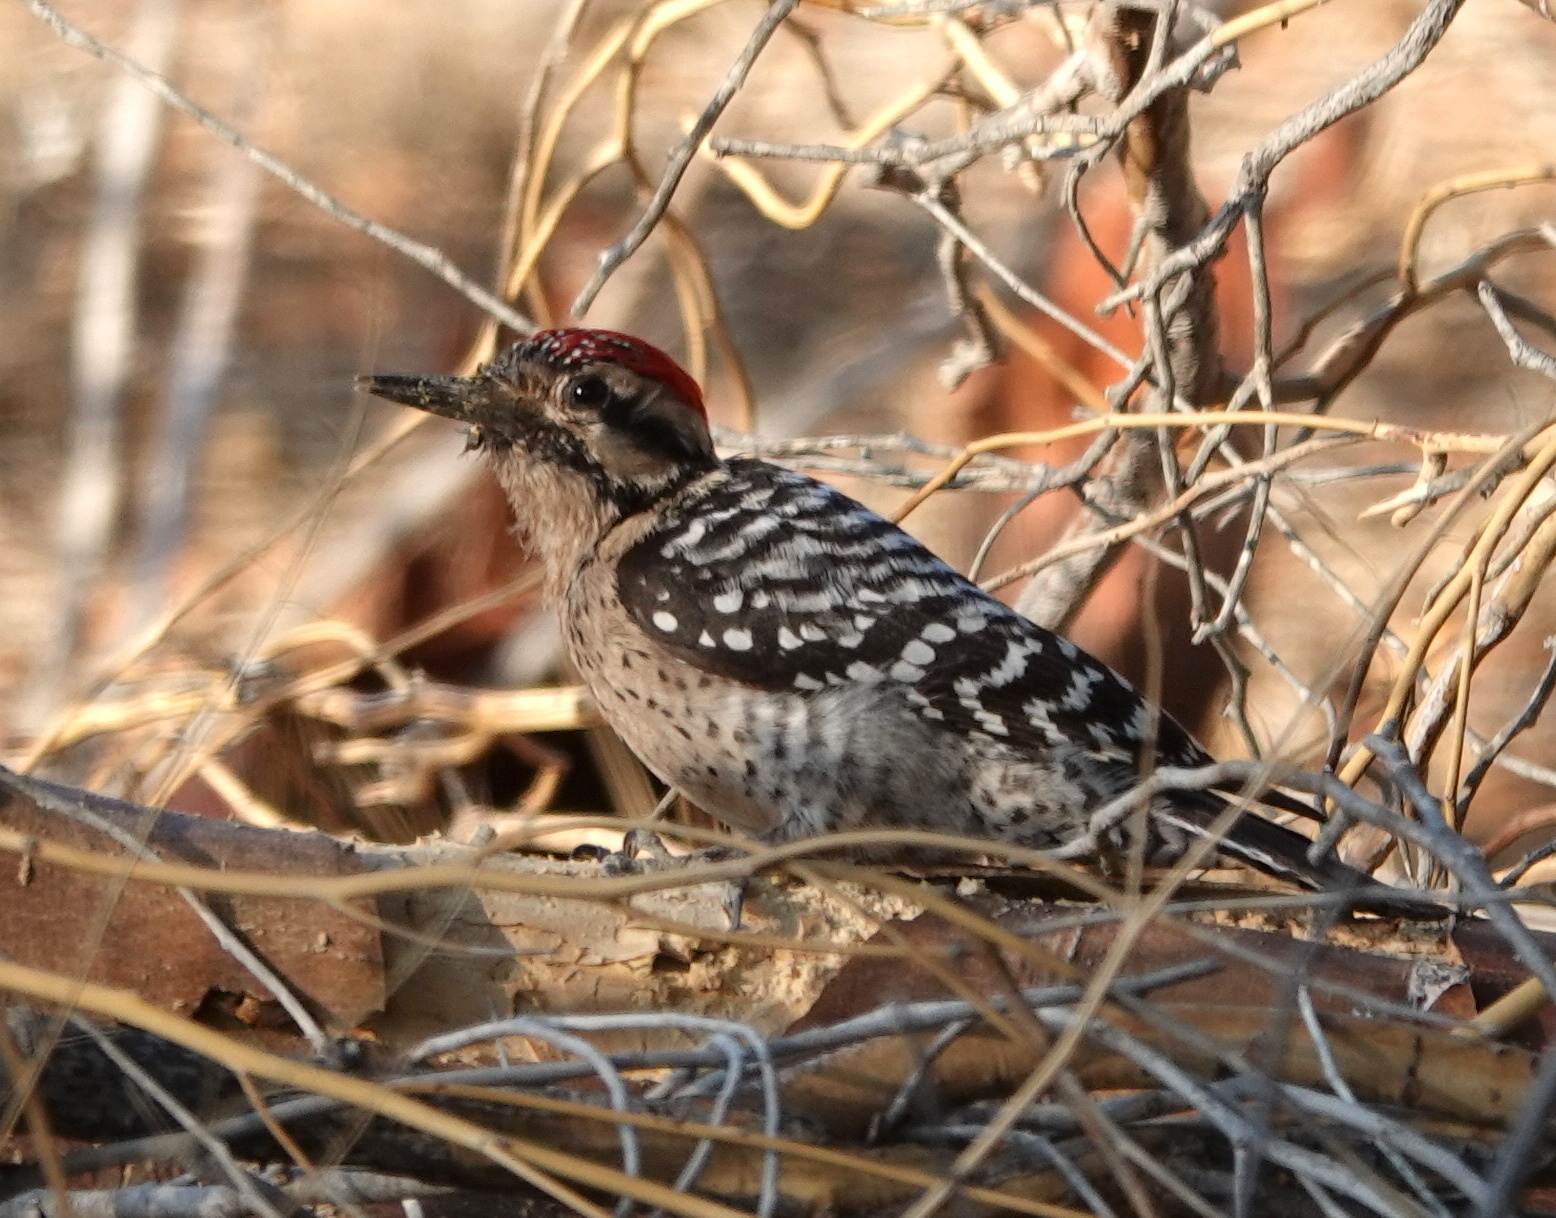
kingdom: Animalia
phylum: Chordata
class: Aves
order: Piciformes
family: Picidae
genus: Dryobates
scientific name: Dryobates scalaris
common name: Ladder-backed woodpecker
